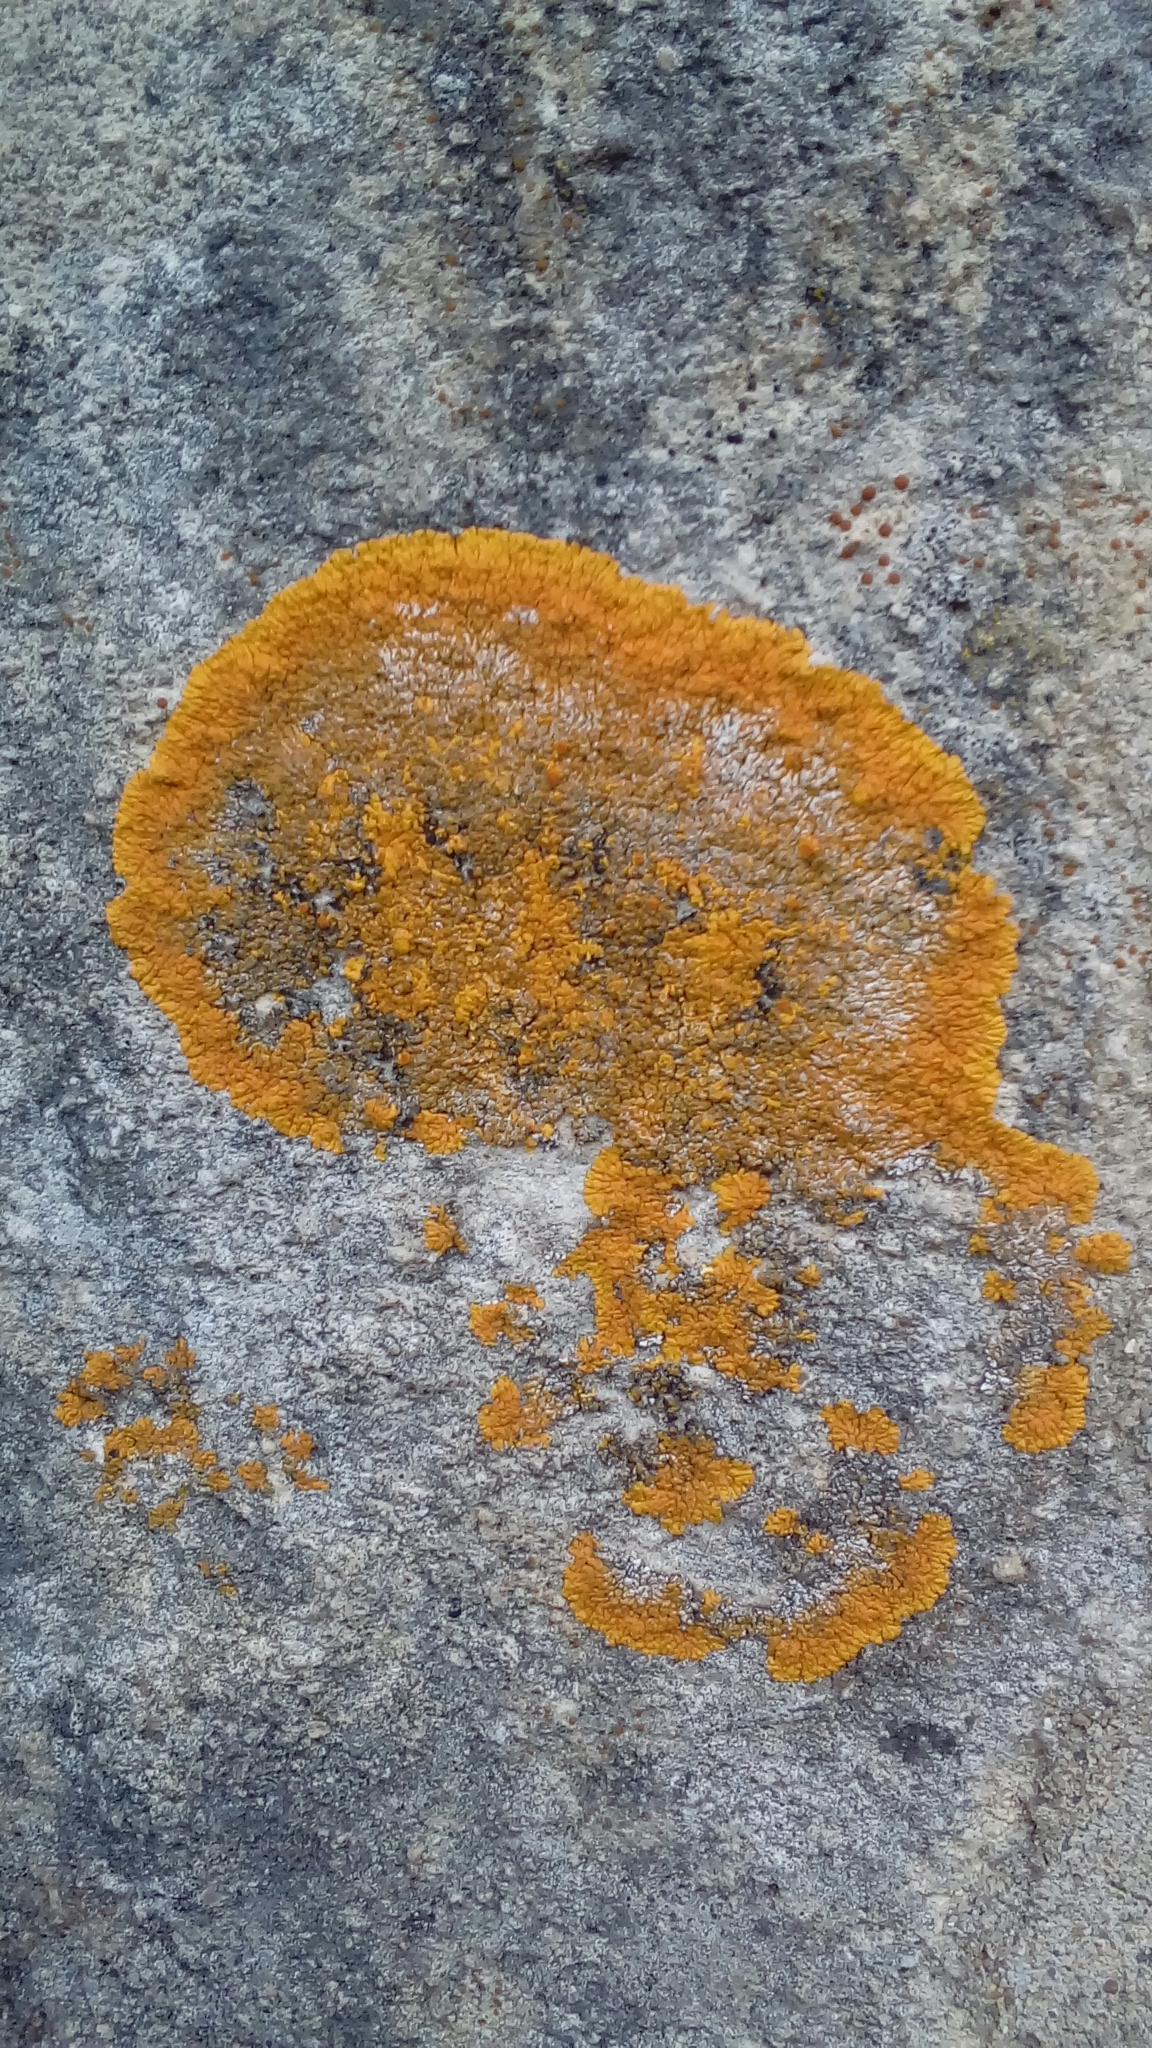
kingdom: Fungi
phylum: Ascomycota
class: Lecanoromycetes
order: Teloschistales
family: Teloschistaceae
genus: Variospora
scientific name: Variospora flavescens
